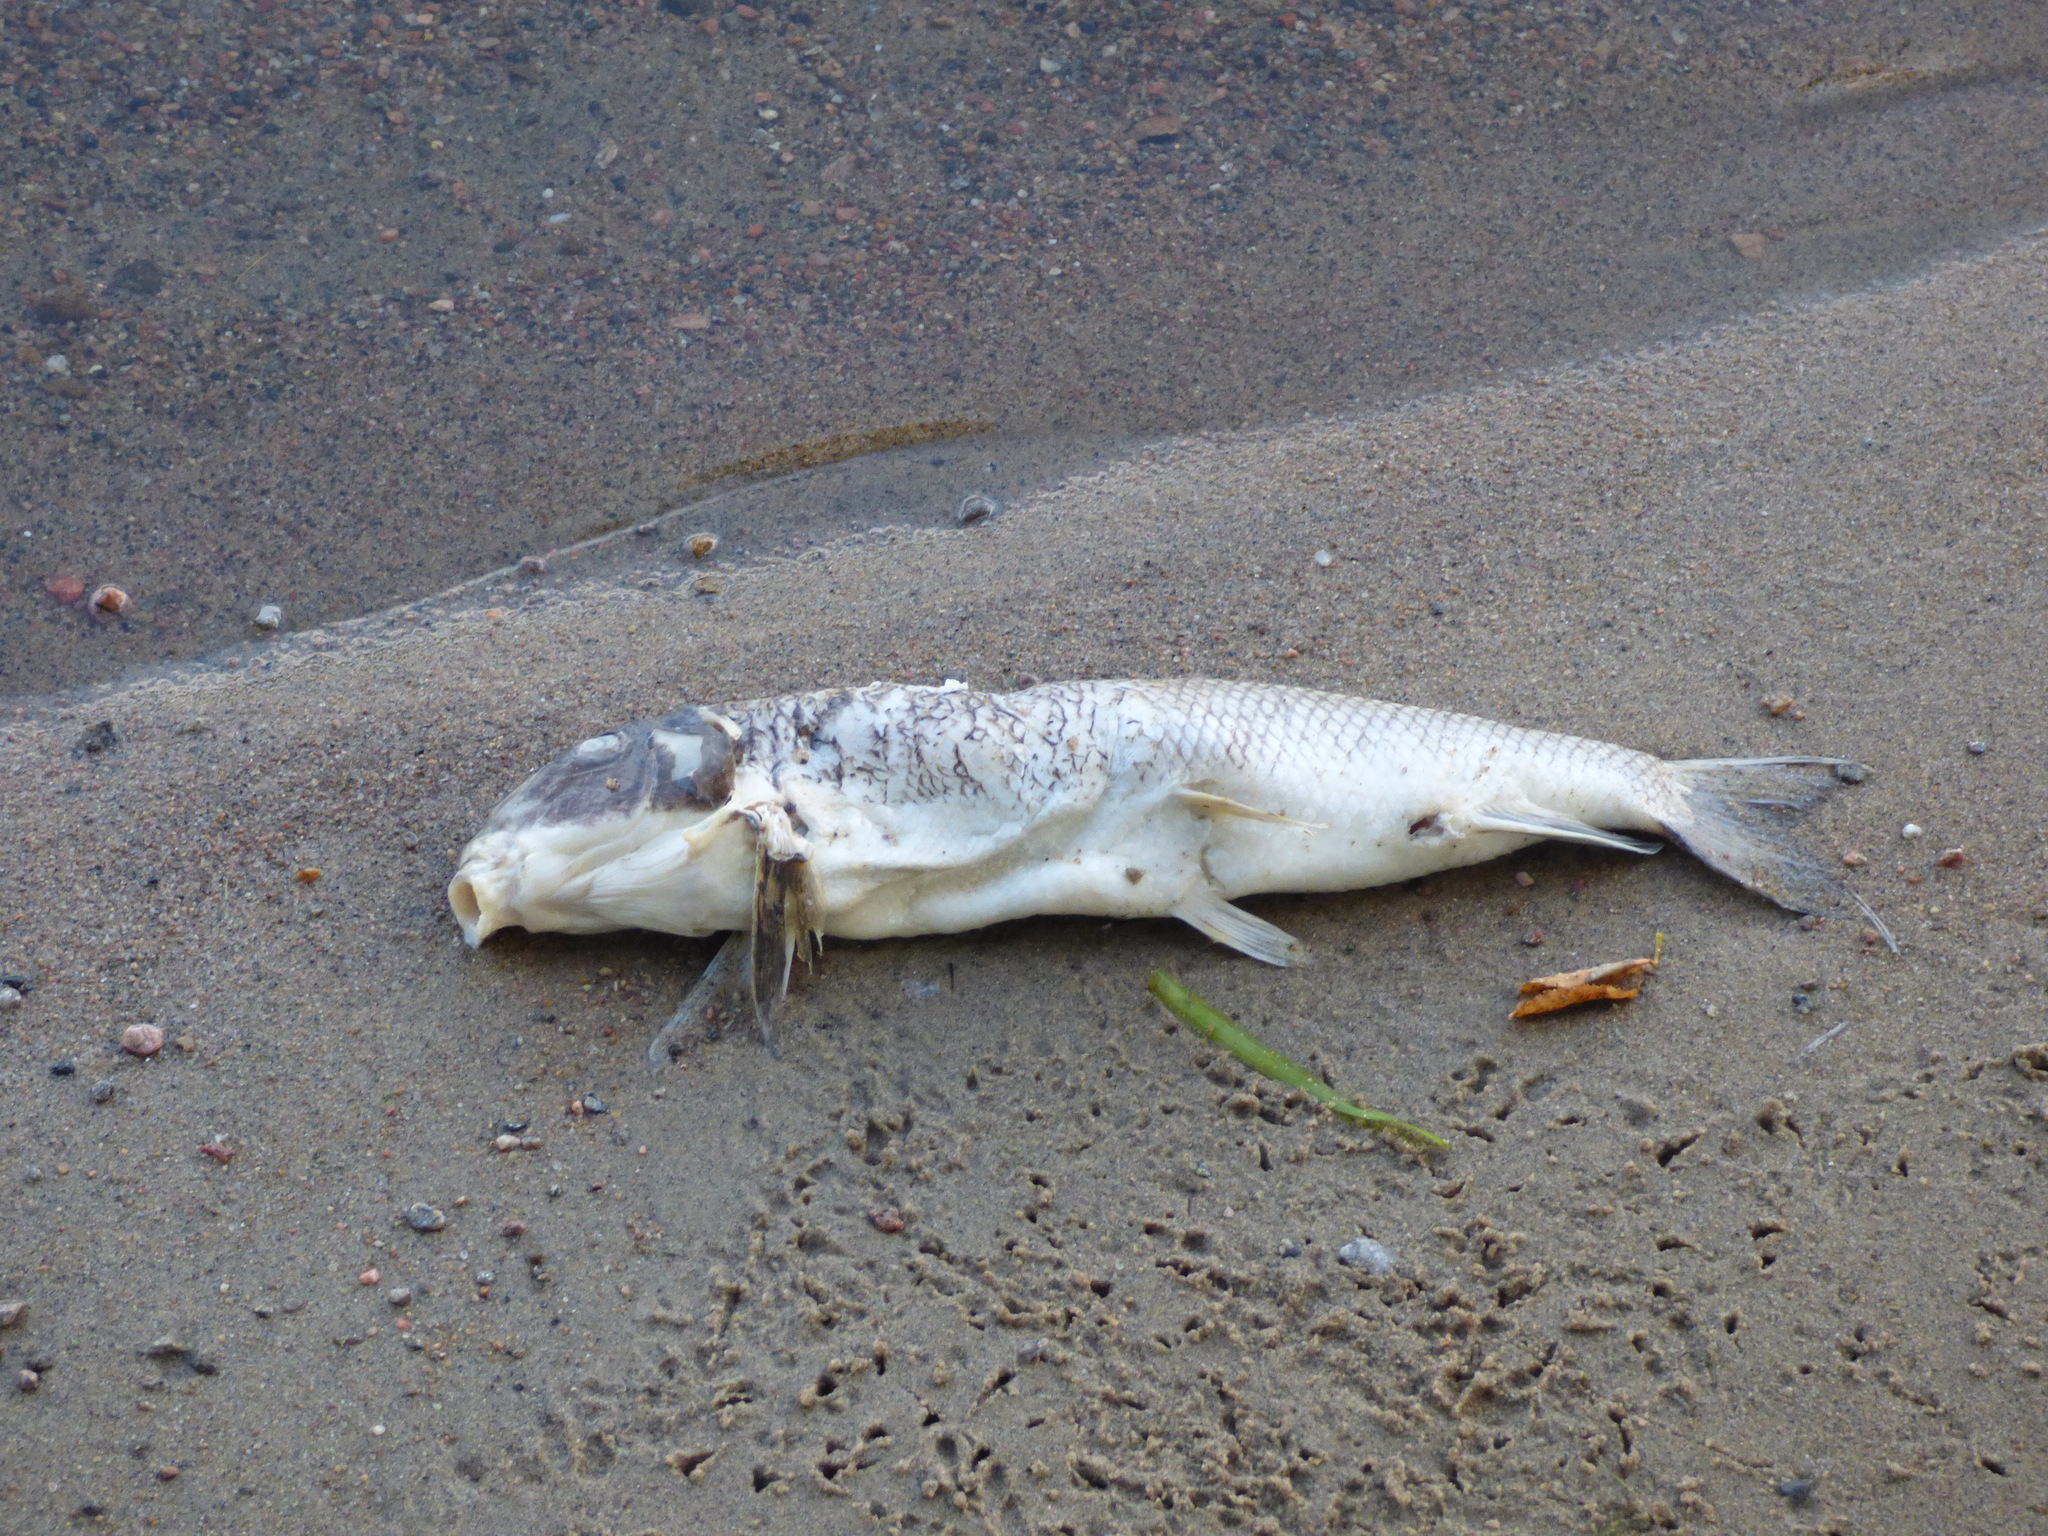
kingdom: Animalia
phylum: Chordata
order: Cypriniformes
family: Catostomidae
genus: Catostomus
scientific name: Catostomus commersonii
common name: White sucker
